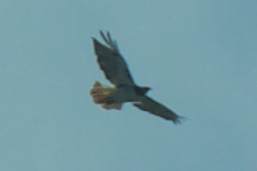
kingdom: Animalia
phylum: Chordata
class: Aves
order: Accipitriformes
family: Accipitridae
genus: Buteo
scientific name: Buteo jamaicensis
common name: Red-tailed hawk
